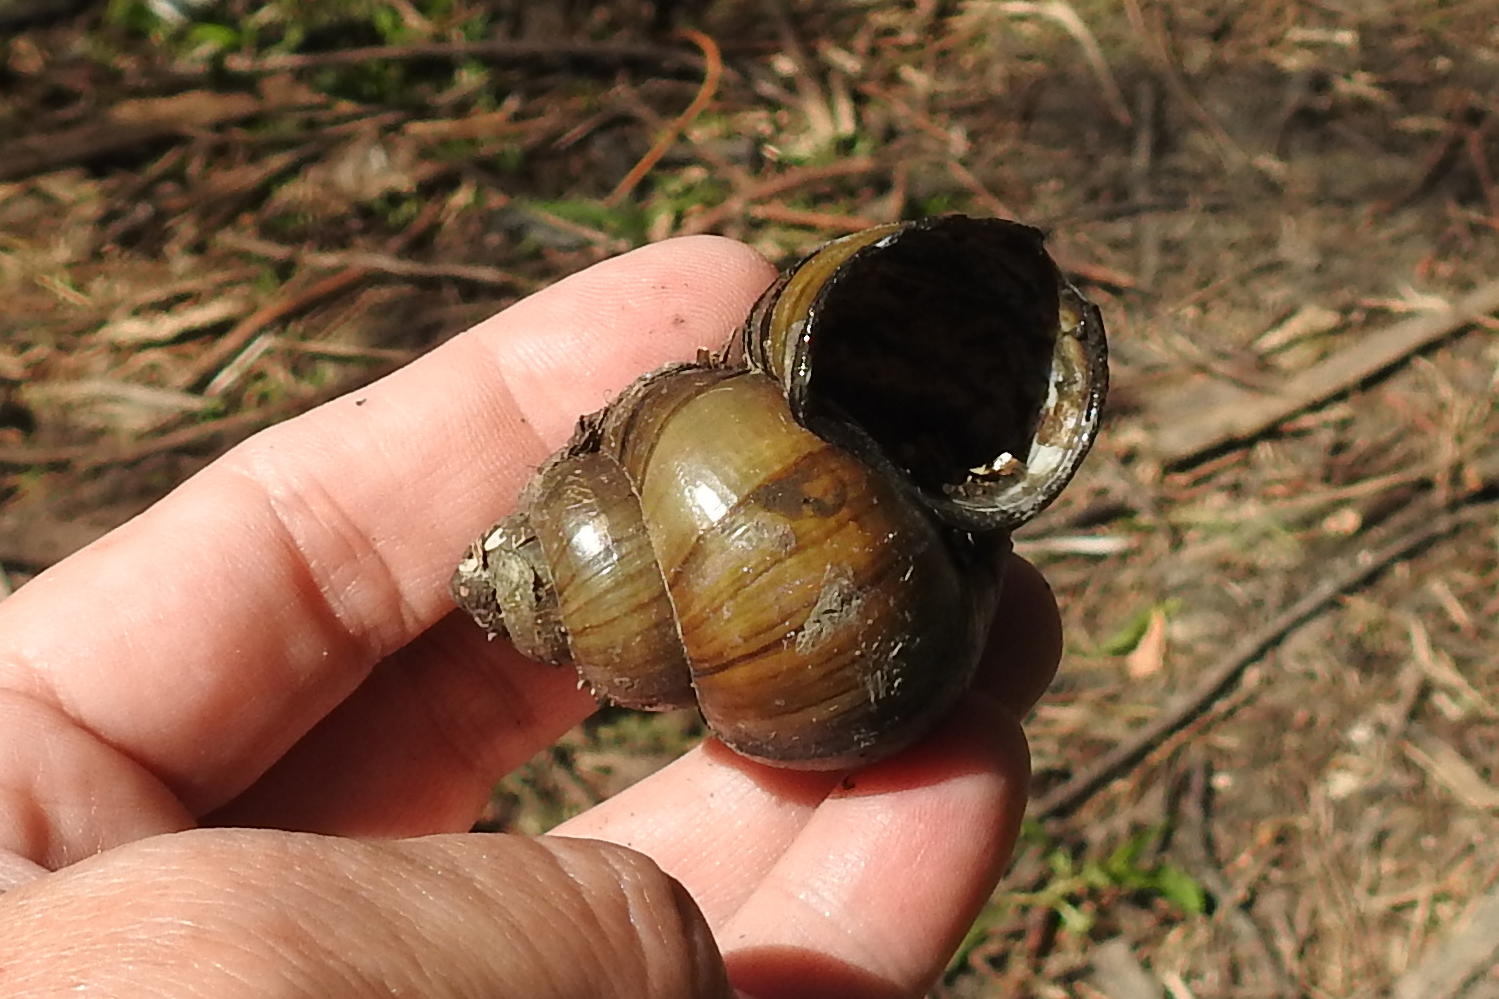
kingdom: Animalia
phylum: Mollusca
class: Gastropoda
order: Architaenioglossa
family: Viviparidae
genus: Cipangopaludina
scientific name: Cipangopaludina chinensis
